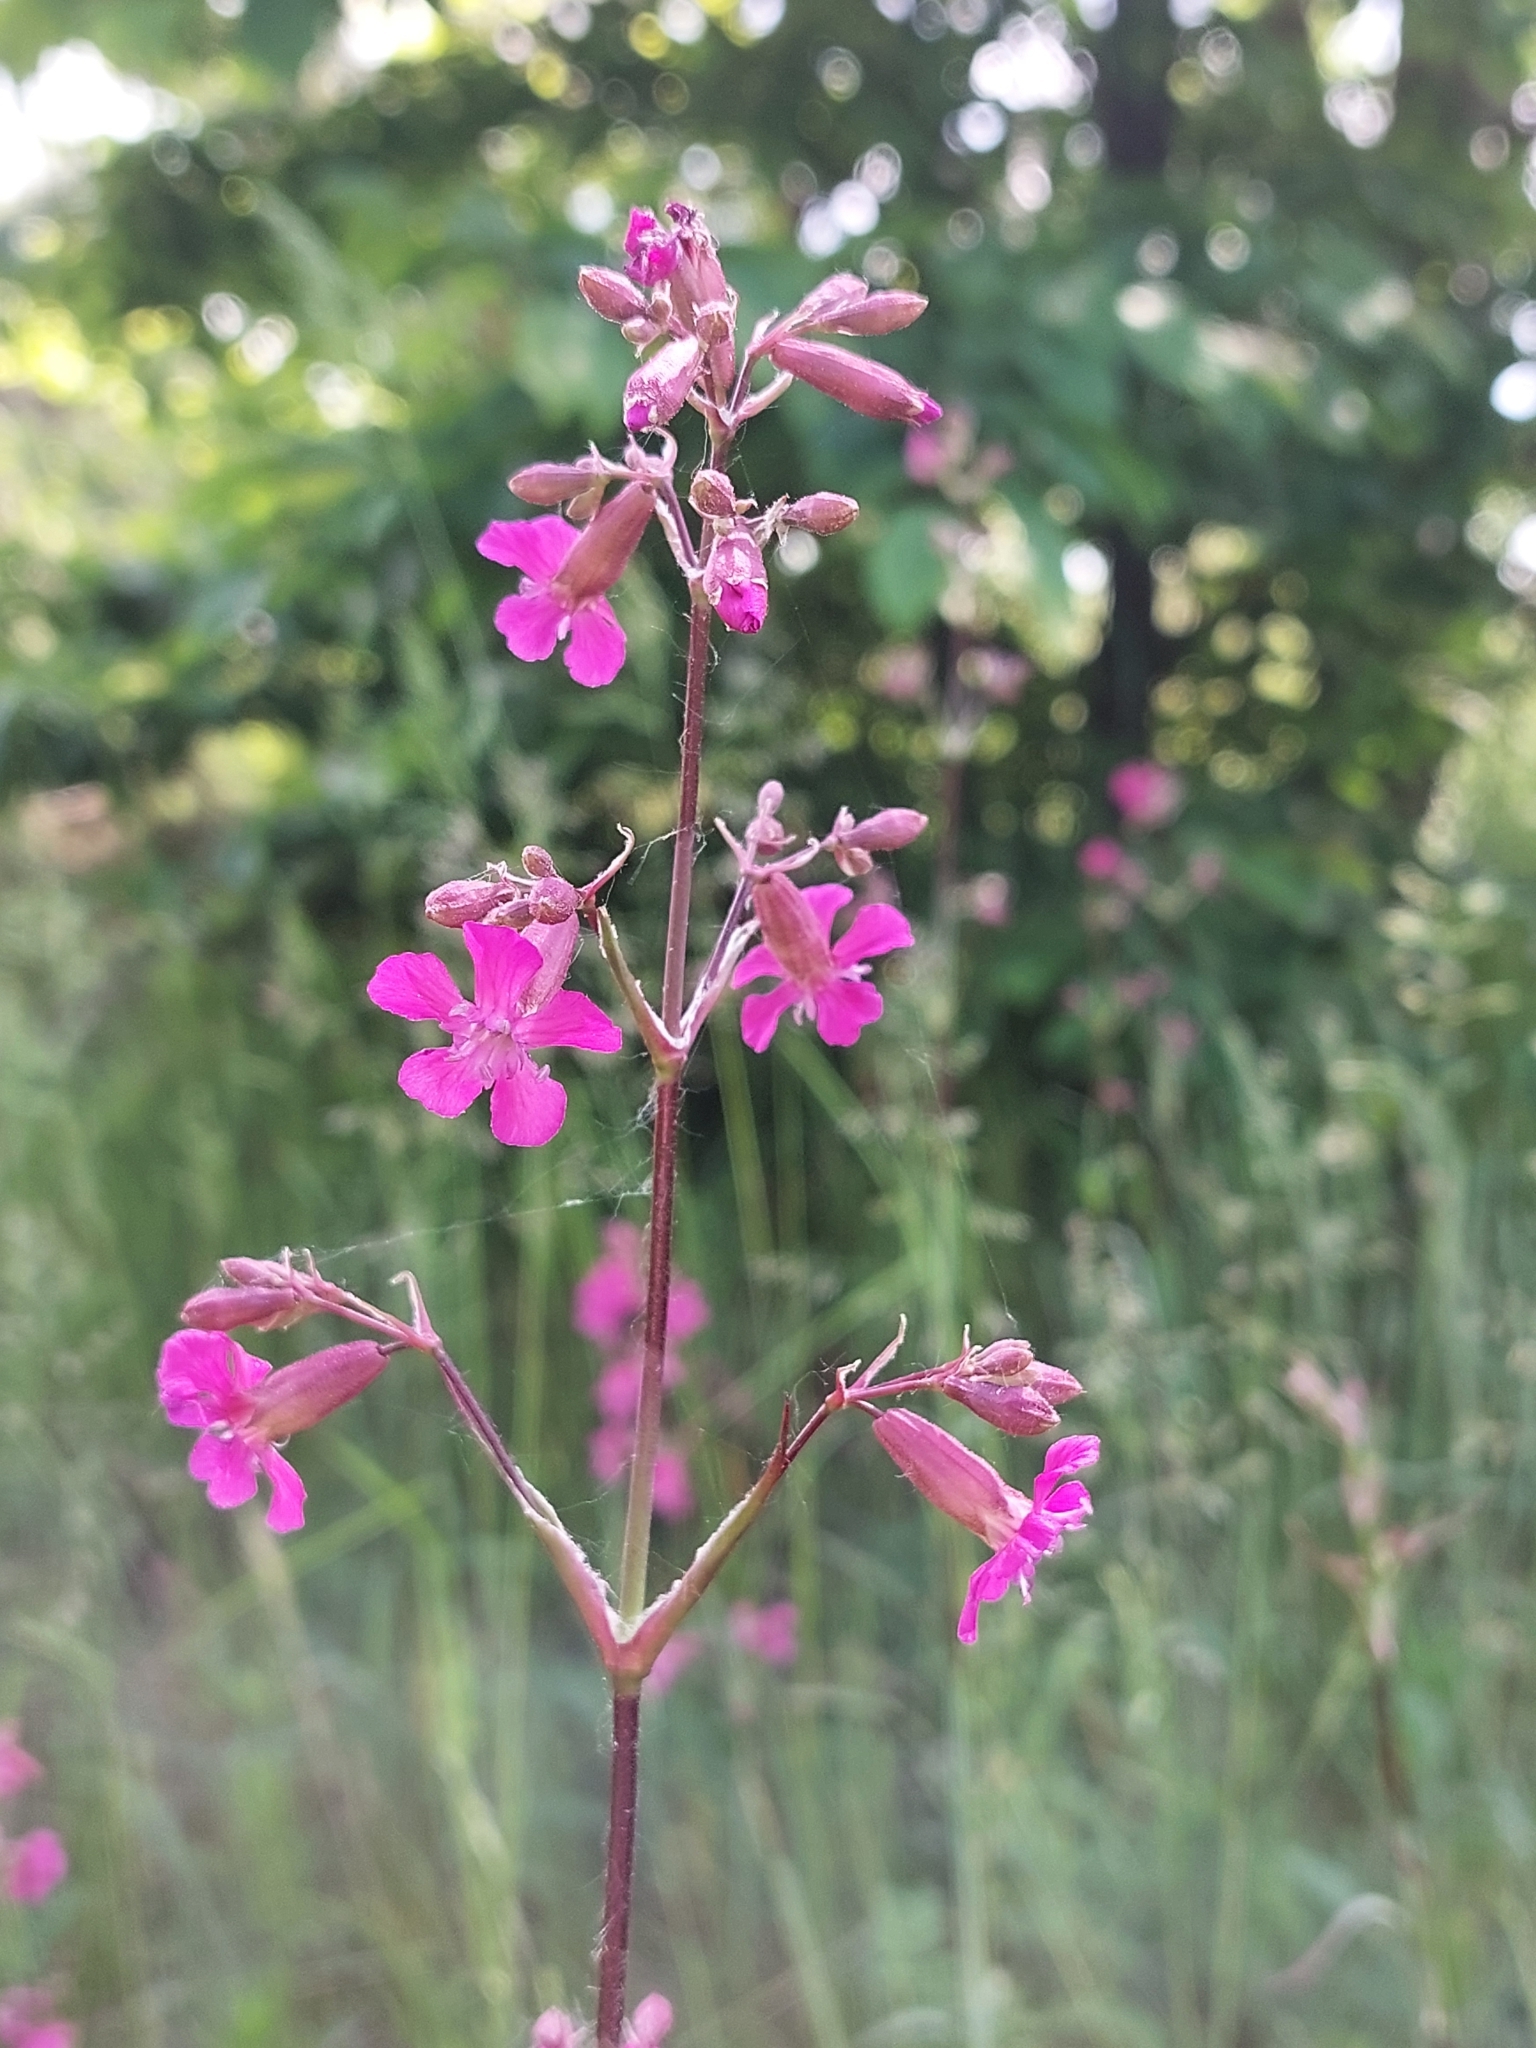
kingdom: Plantae
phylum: Tracheophyta
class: Magnoliopsida
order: Caryophyllales
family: Caryophyllaceae
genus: Viscaria
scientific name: Viscaria vulgaris
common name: Clammy campion
